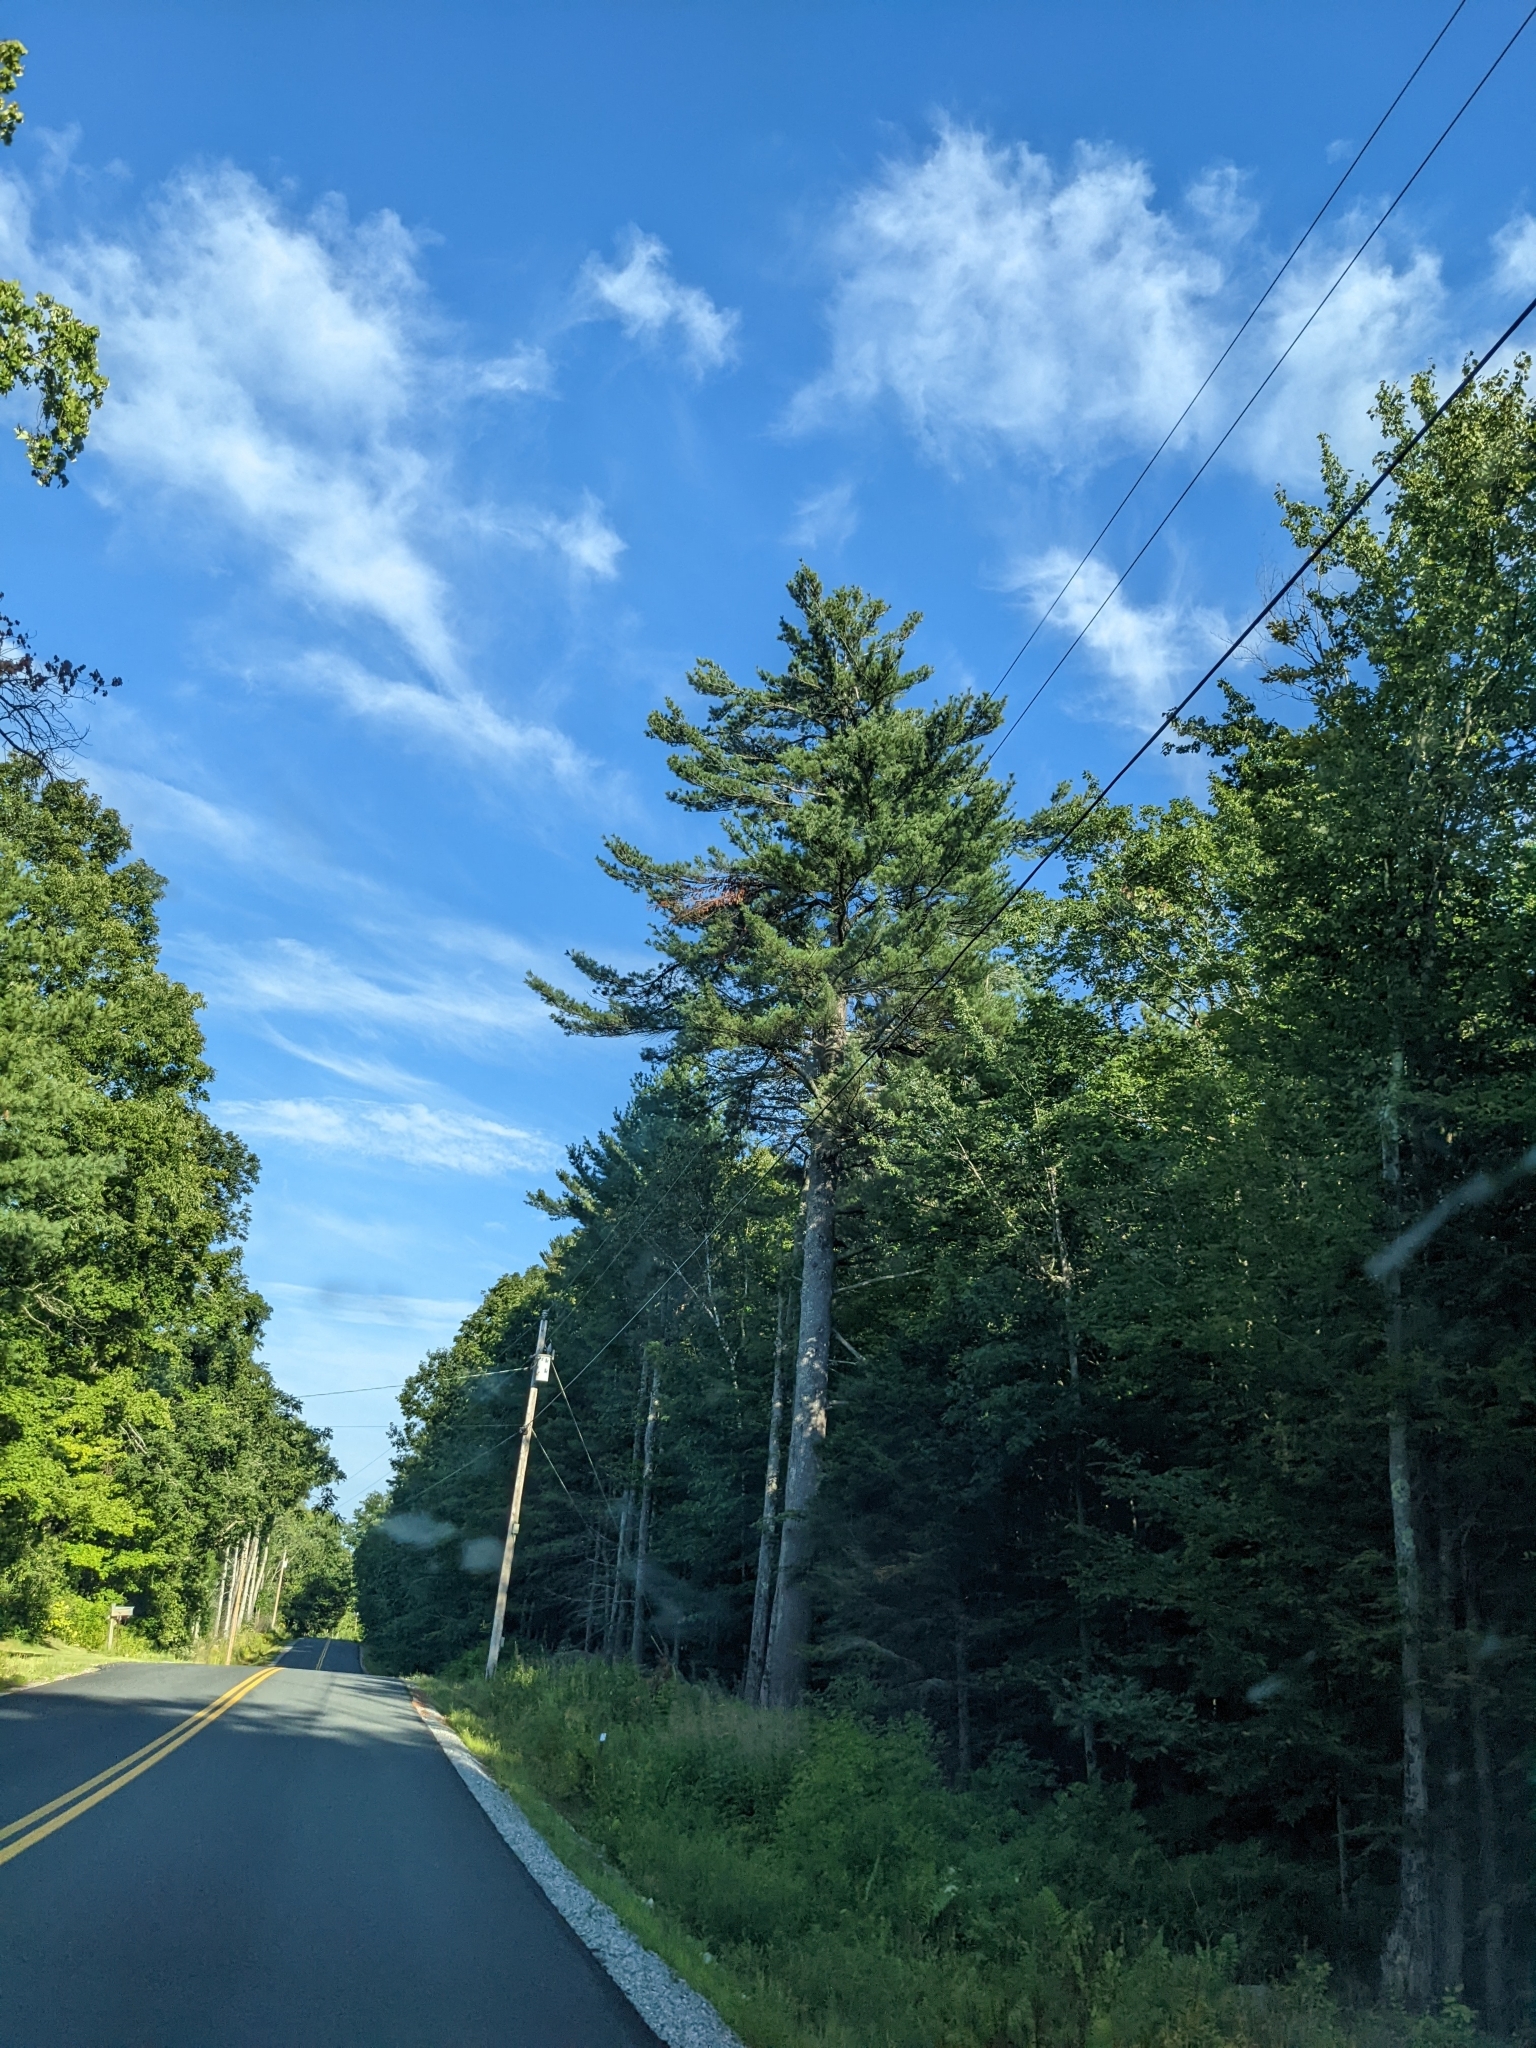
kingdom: Plantae
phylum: Tracheophyta
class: Pinopsida
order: Pinales
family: Pinaceae
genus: Pinus
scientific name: Pinus strobus
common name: Weymouth pine
